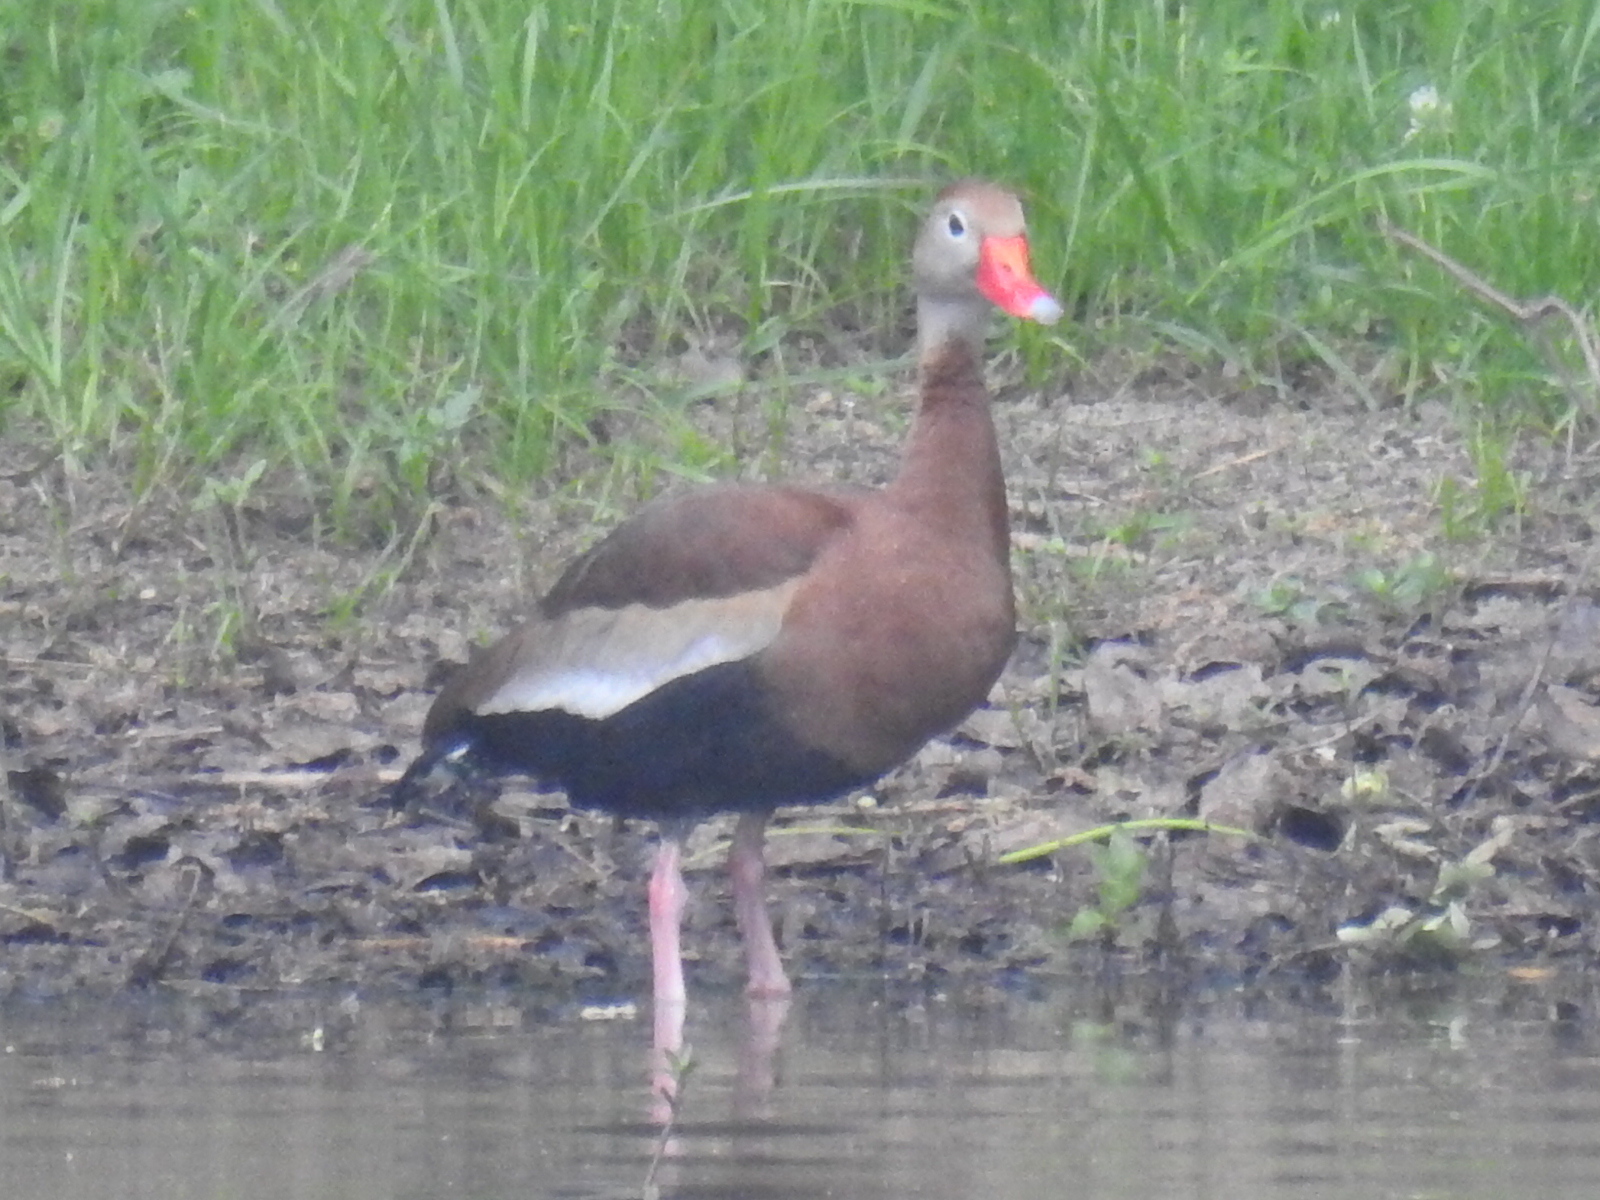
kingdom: Animalia
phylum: Chordata
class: Aves
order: Anseriformes
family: Anatidae
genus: Dendrocygna
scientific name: Dendrocygna autumnalis
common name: Black-bellied whistling duck
